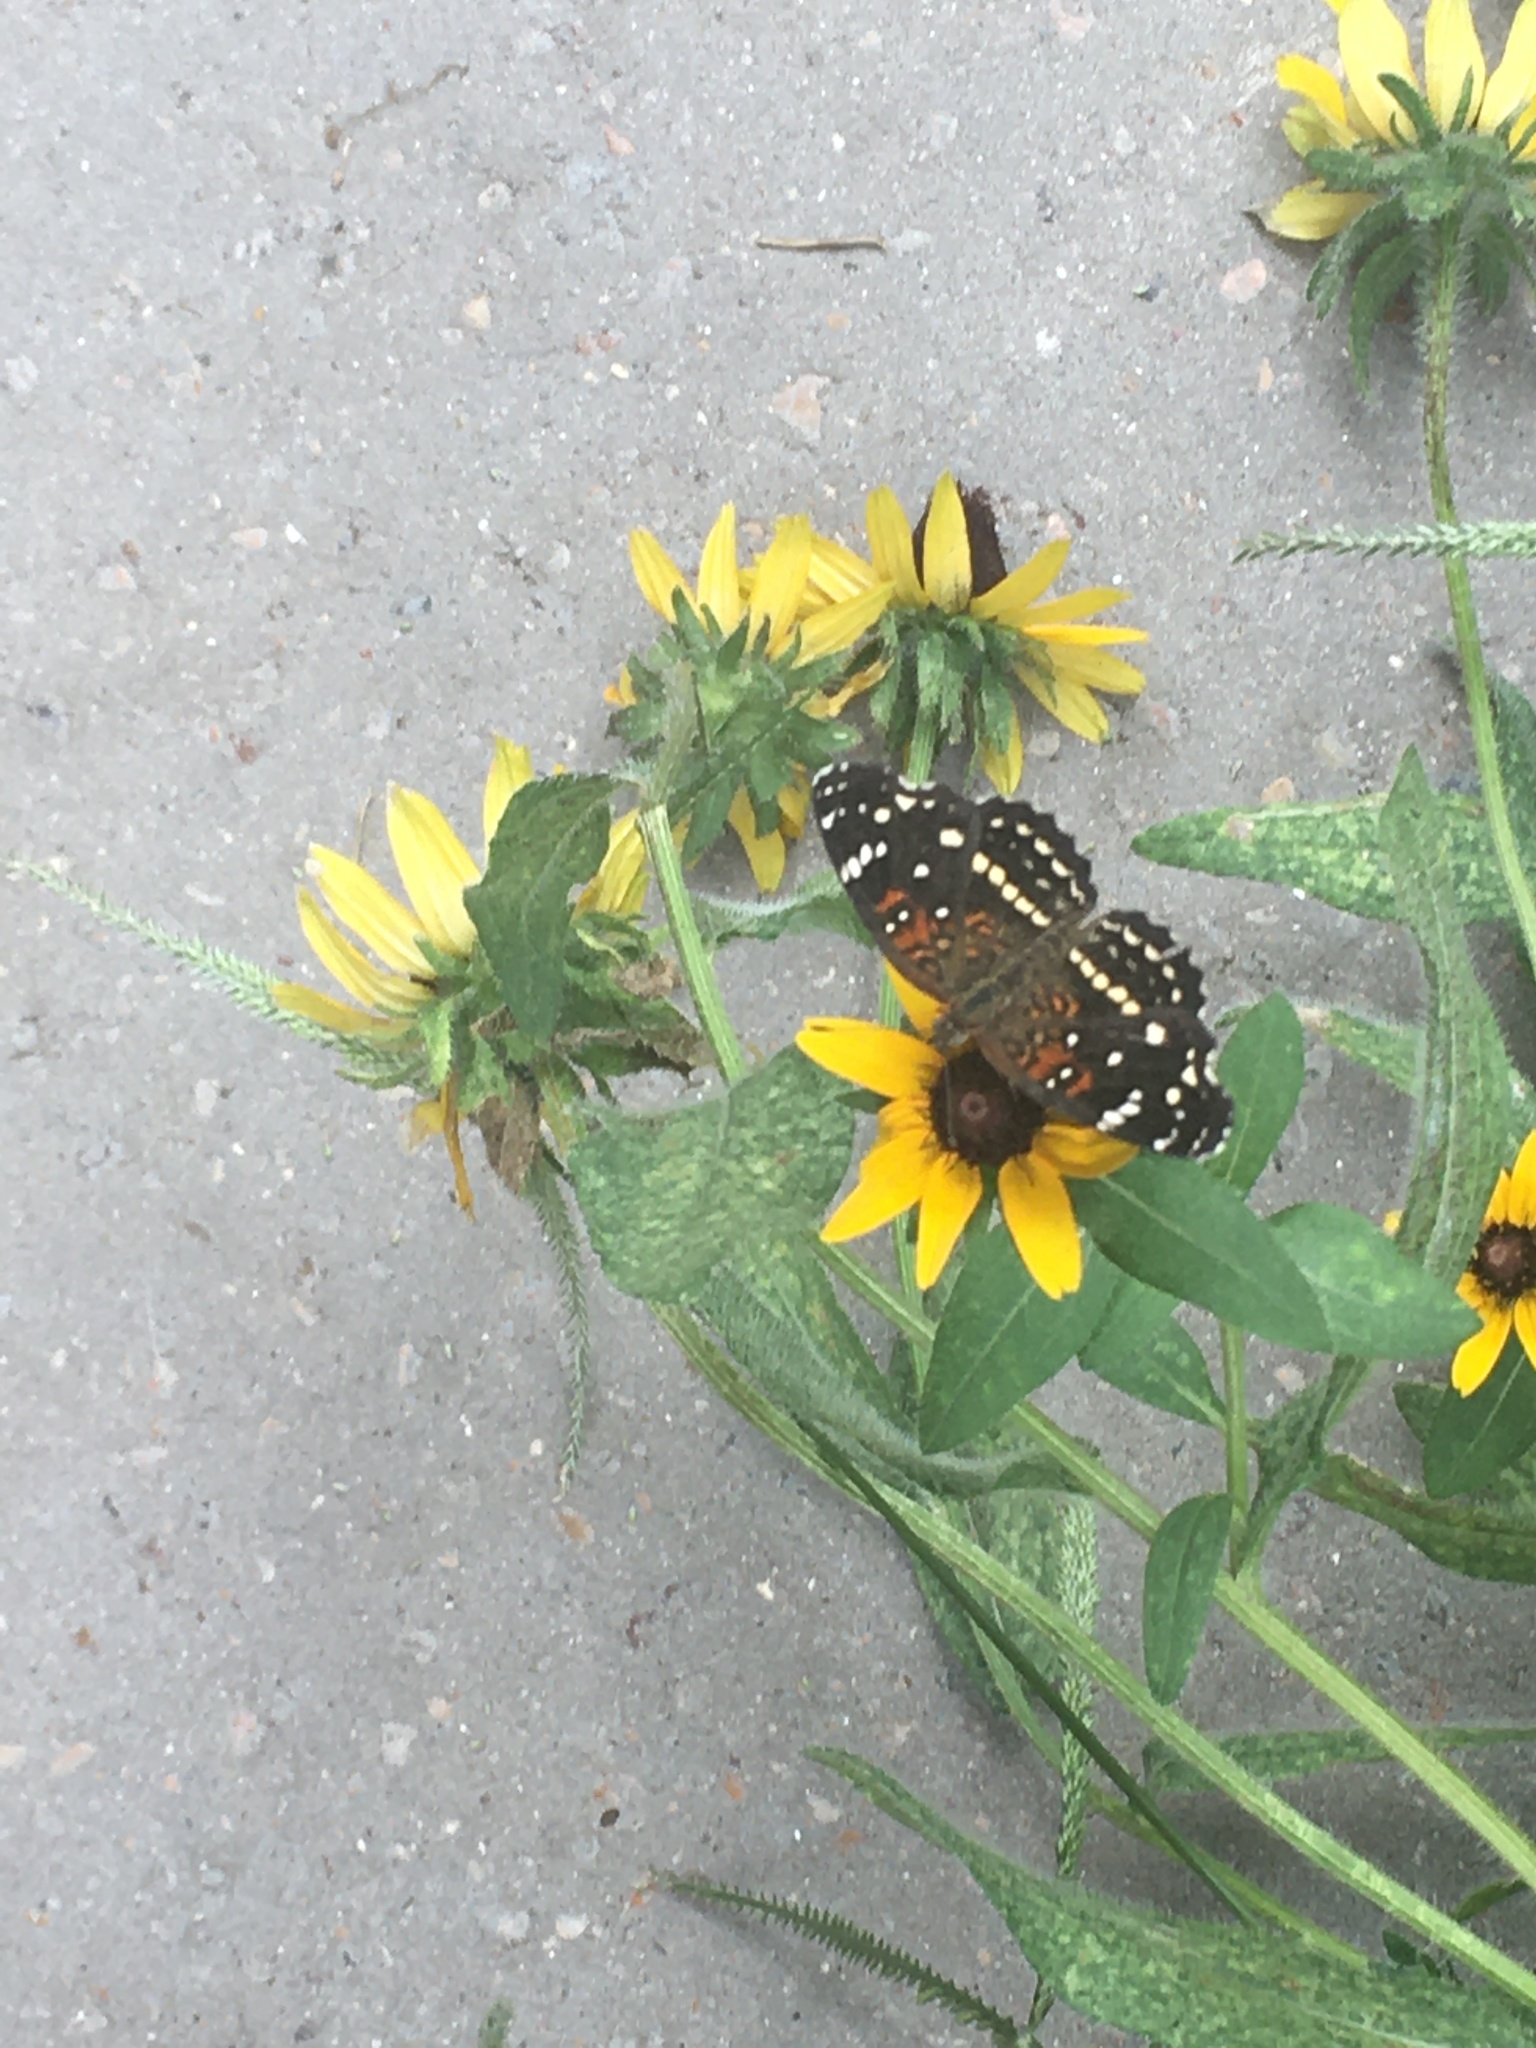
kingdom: Animalia
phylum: Arthropoda
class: Insecta
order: Lepidoptera
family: Nymphalidae
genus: Anthanassa
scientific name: Anthanassa texana
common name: Texan crescent
